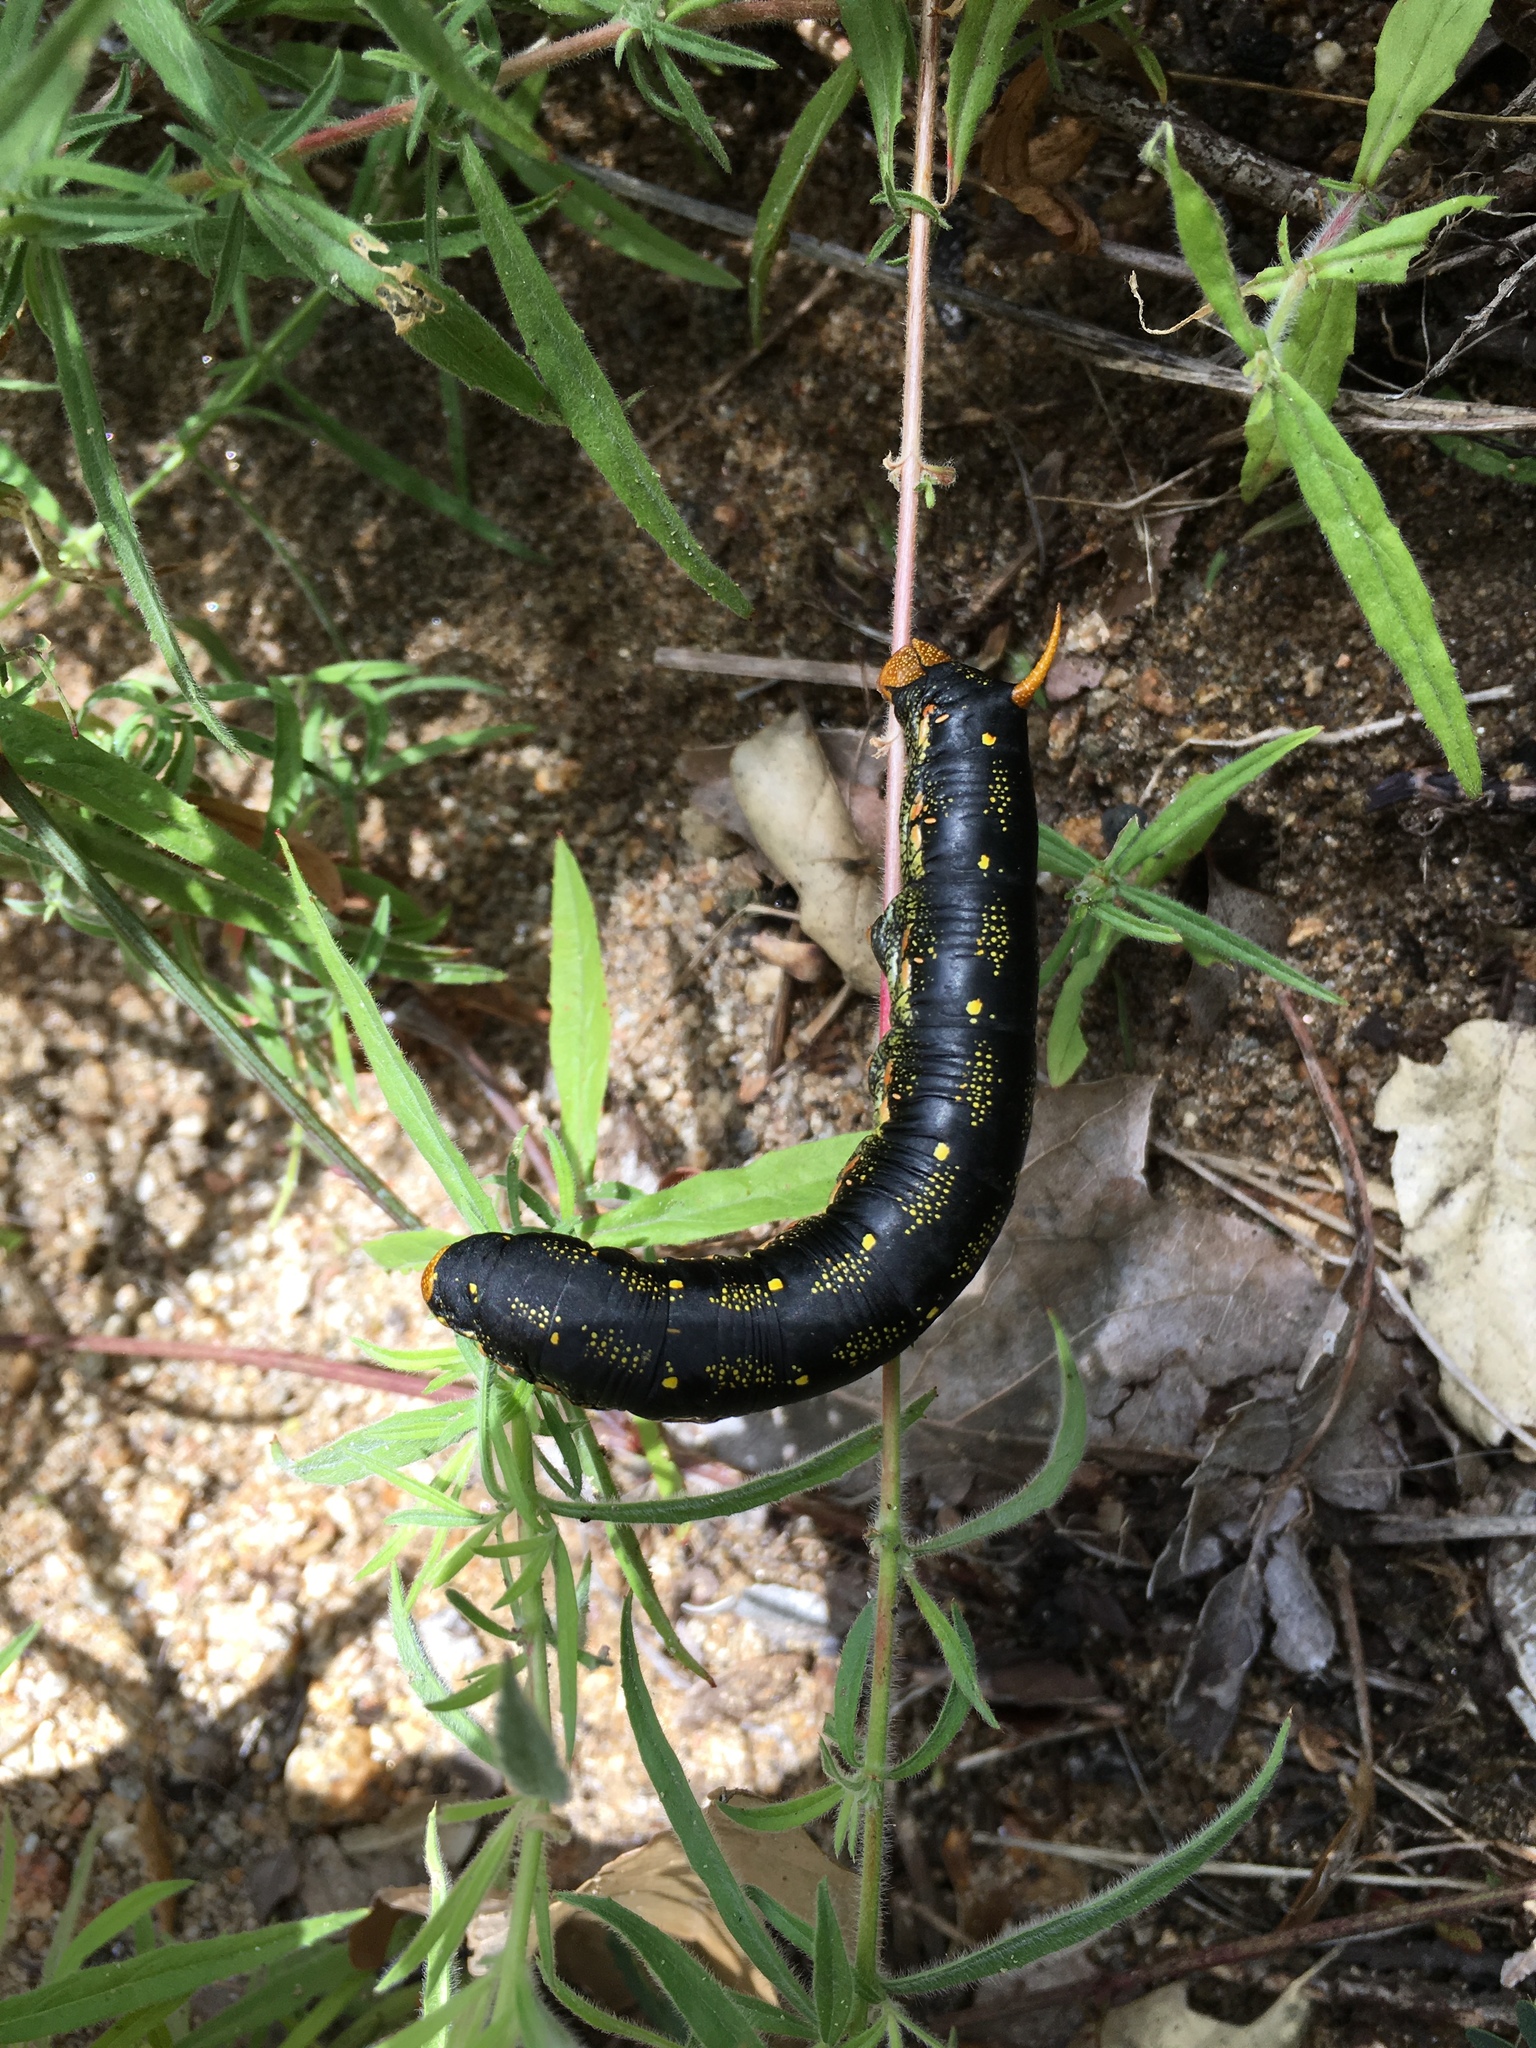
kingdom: Animalia
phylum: Arthropoda
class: Insecta
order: Lepidoptera
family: Sphingidae
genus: Hyles
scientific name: Hyles lineata
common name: White-lined sphinx
